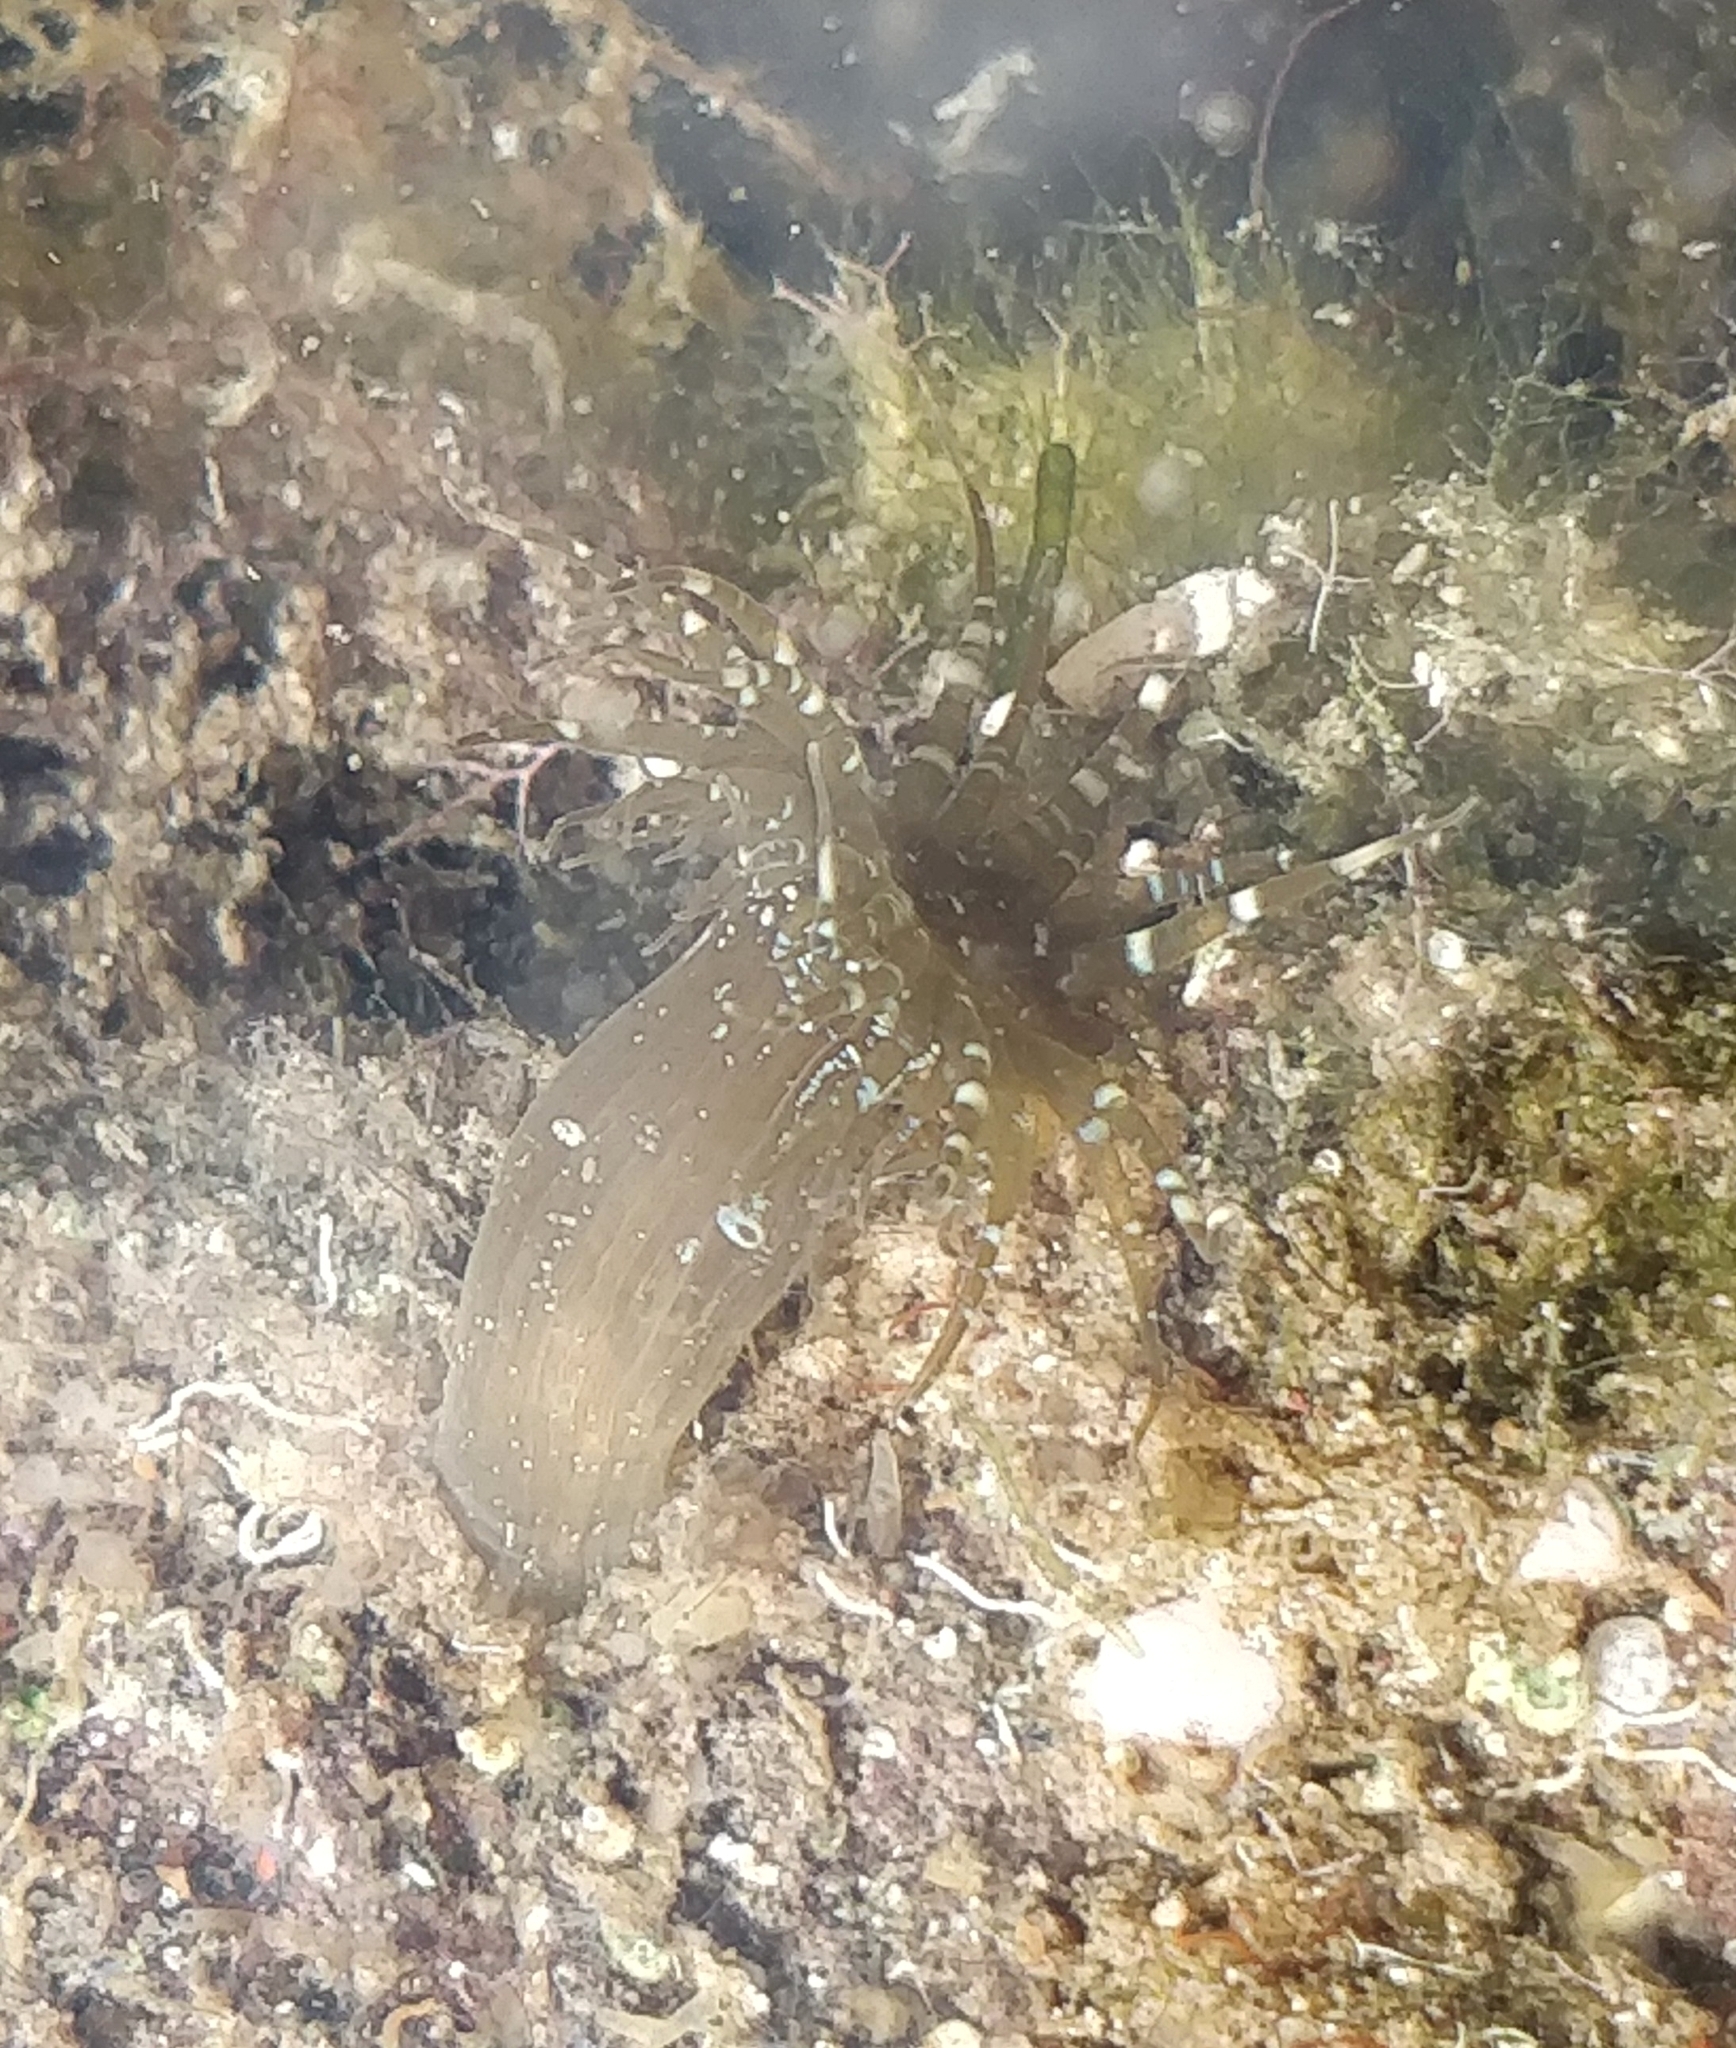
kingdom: Animalia
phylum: Cnidaria
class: Anthozoa
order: Actiniaria
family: Aiptasiidae
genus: Exaiptasia
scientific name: Exaiptasia diaphana
